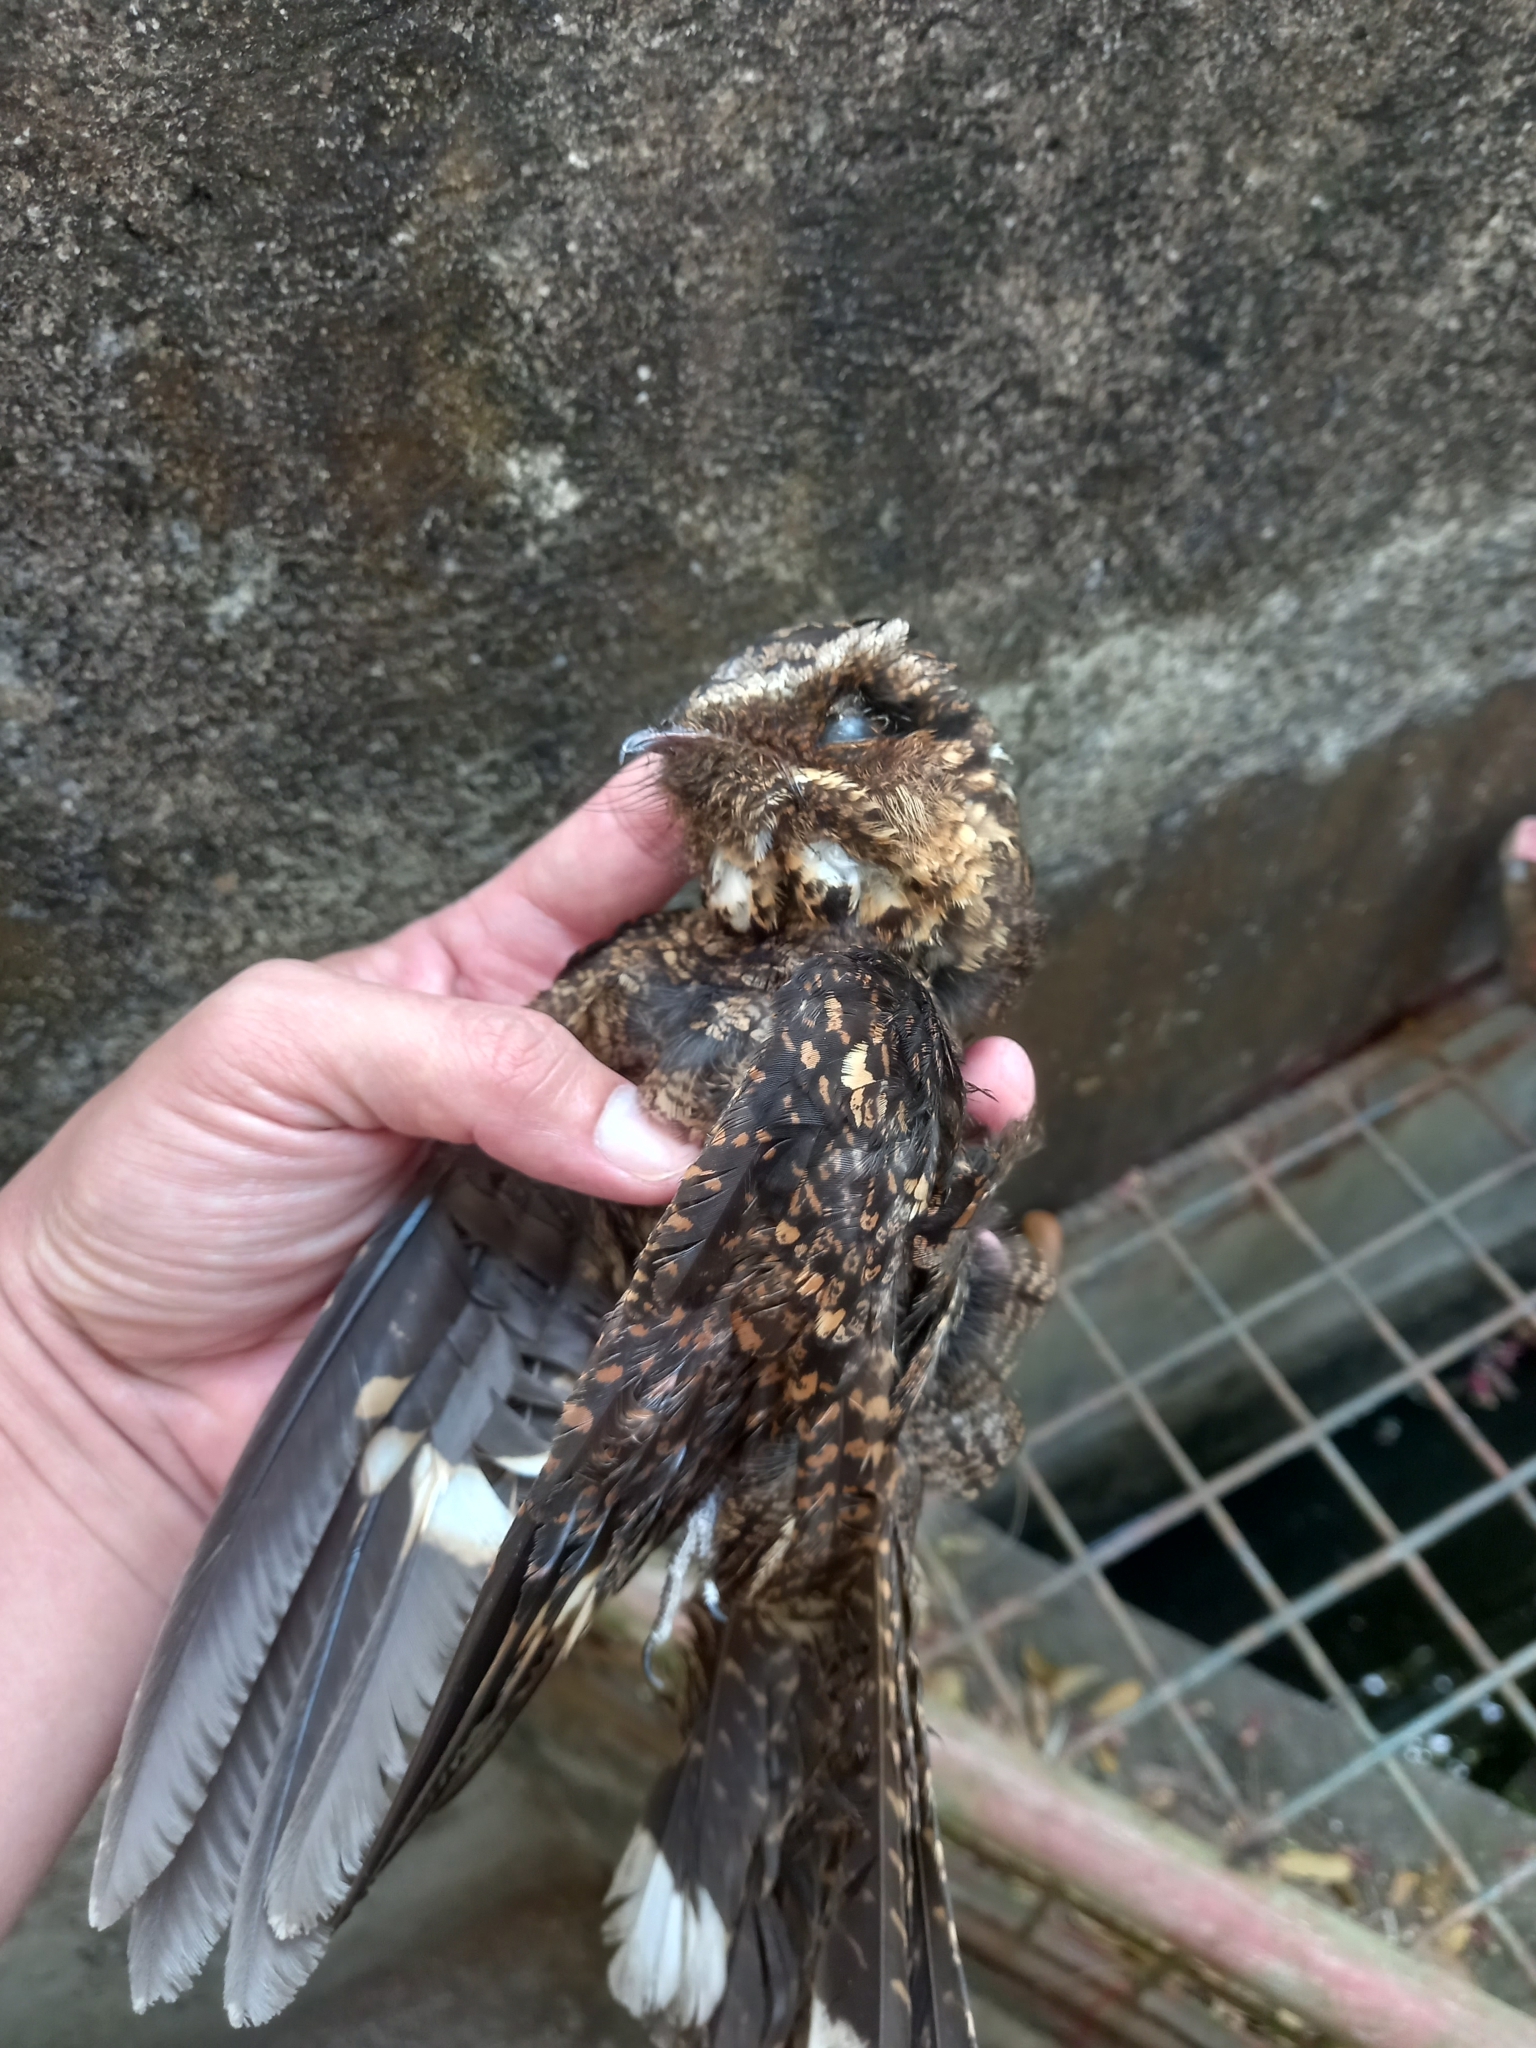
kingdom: Animalia
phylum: Chordata
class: Aves
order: Caprimulgiformes
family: Caprimulgidae
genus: Caprimulgus
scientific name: Caprimulgus manillensis
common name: Philippine nightjar
